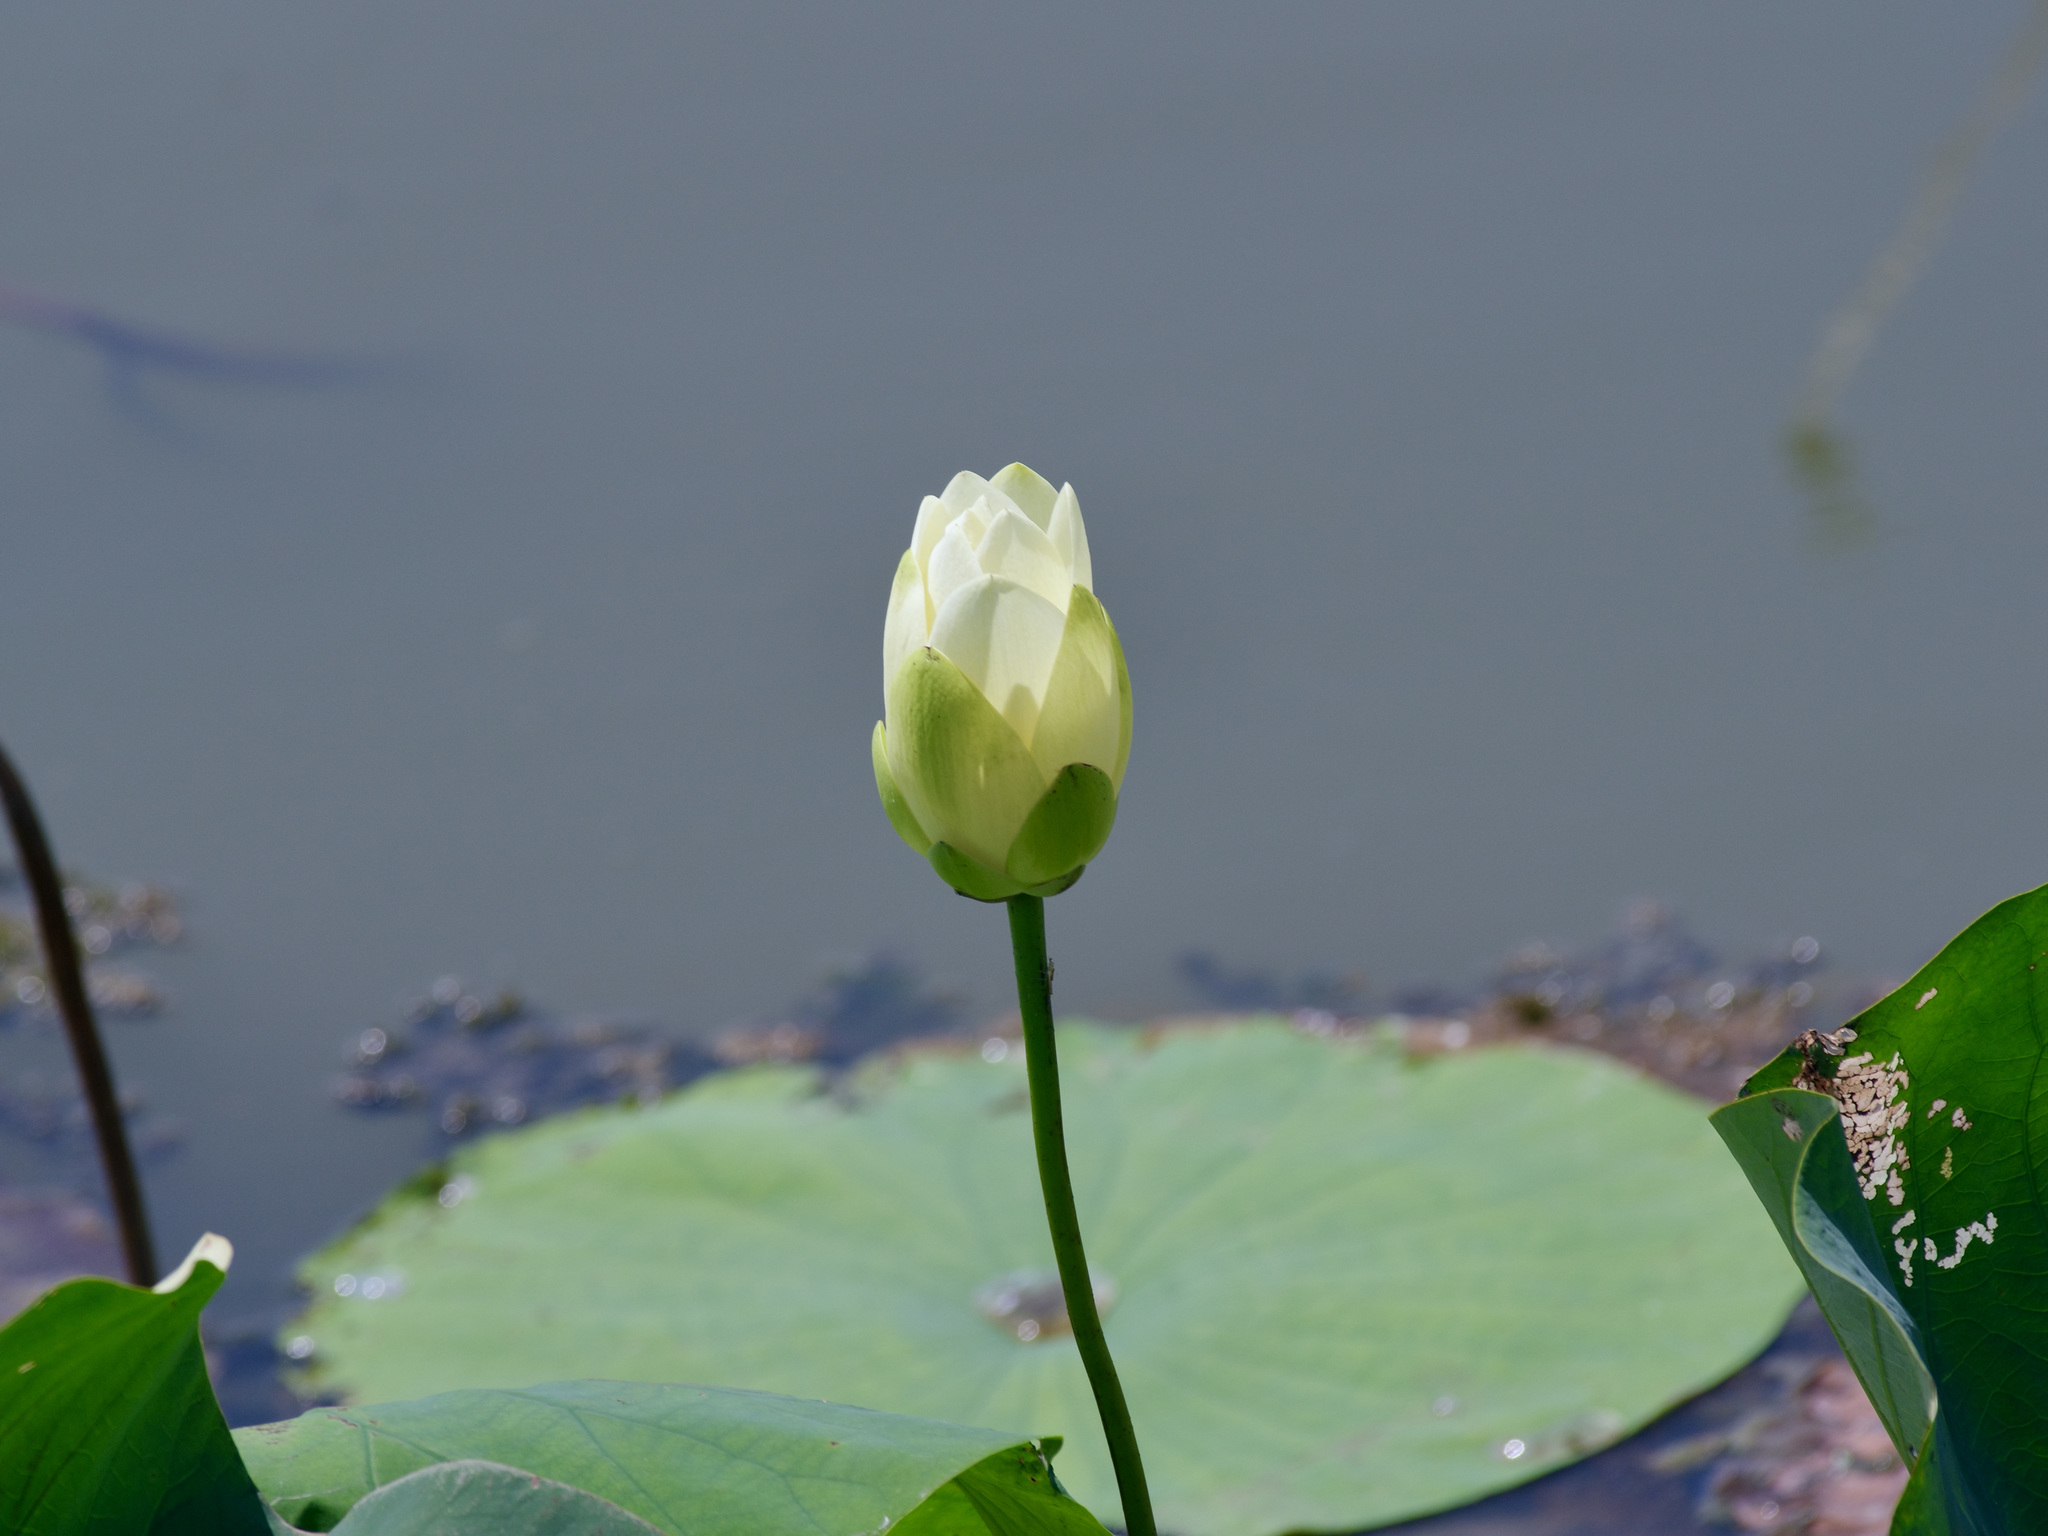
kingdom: Plantae
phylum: Tracheophyta
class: Magnoliopsida
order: Proteales
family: Nelumbonaceae
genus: Nelumbo
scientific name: Nelumbo lutea
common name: American lotus
